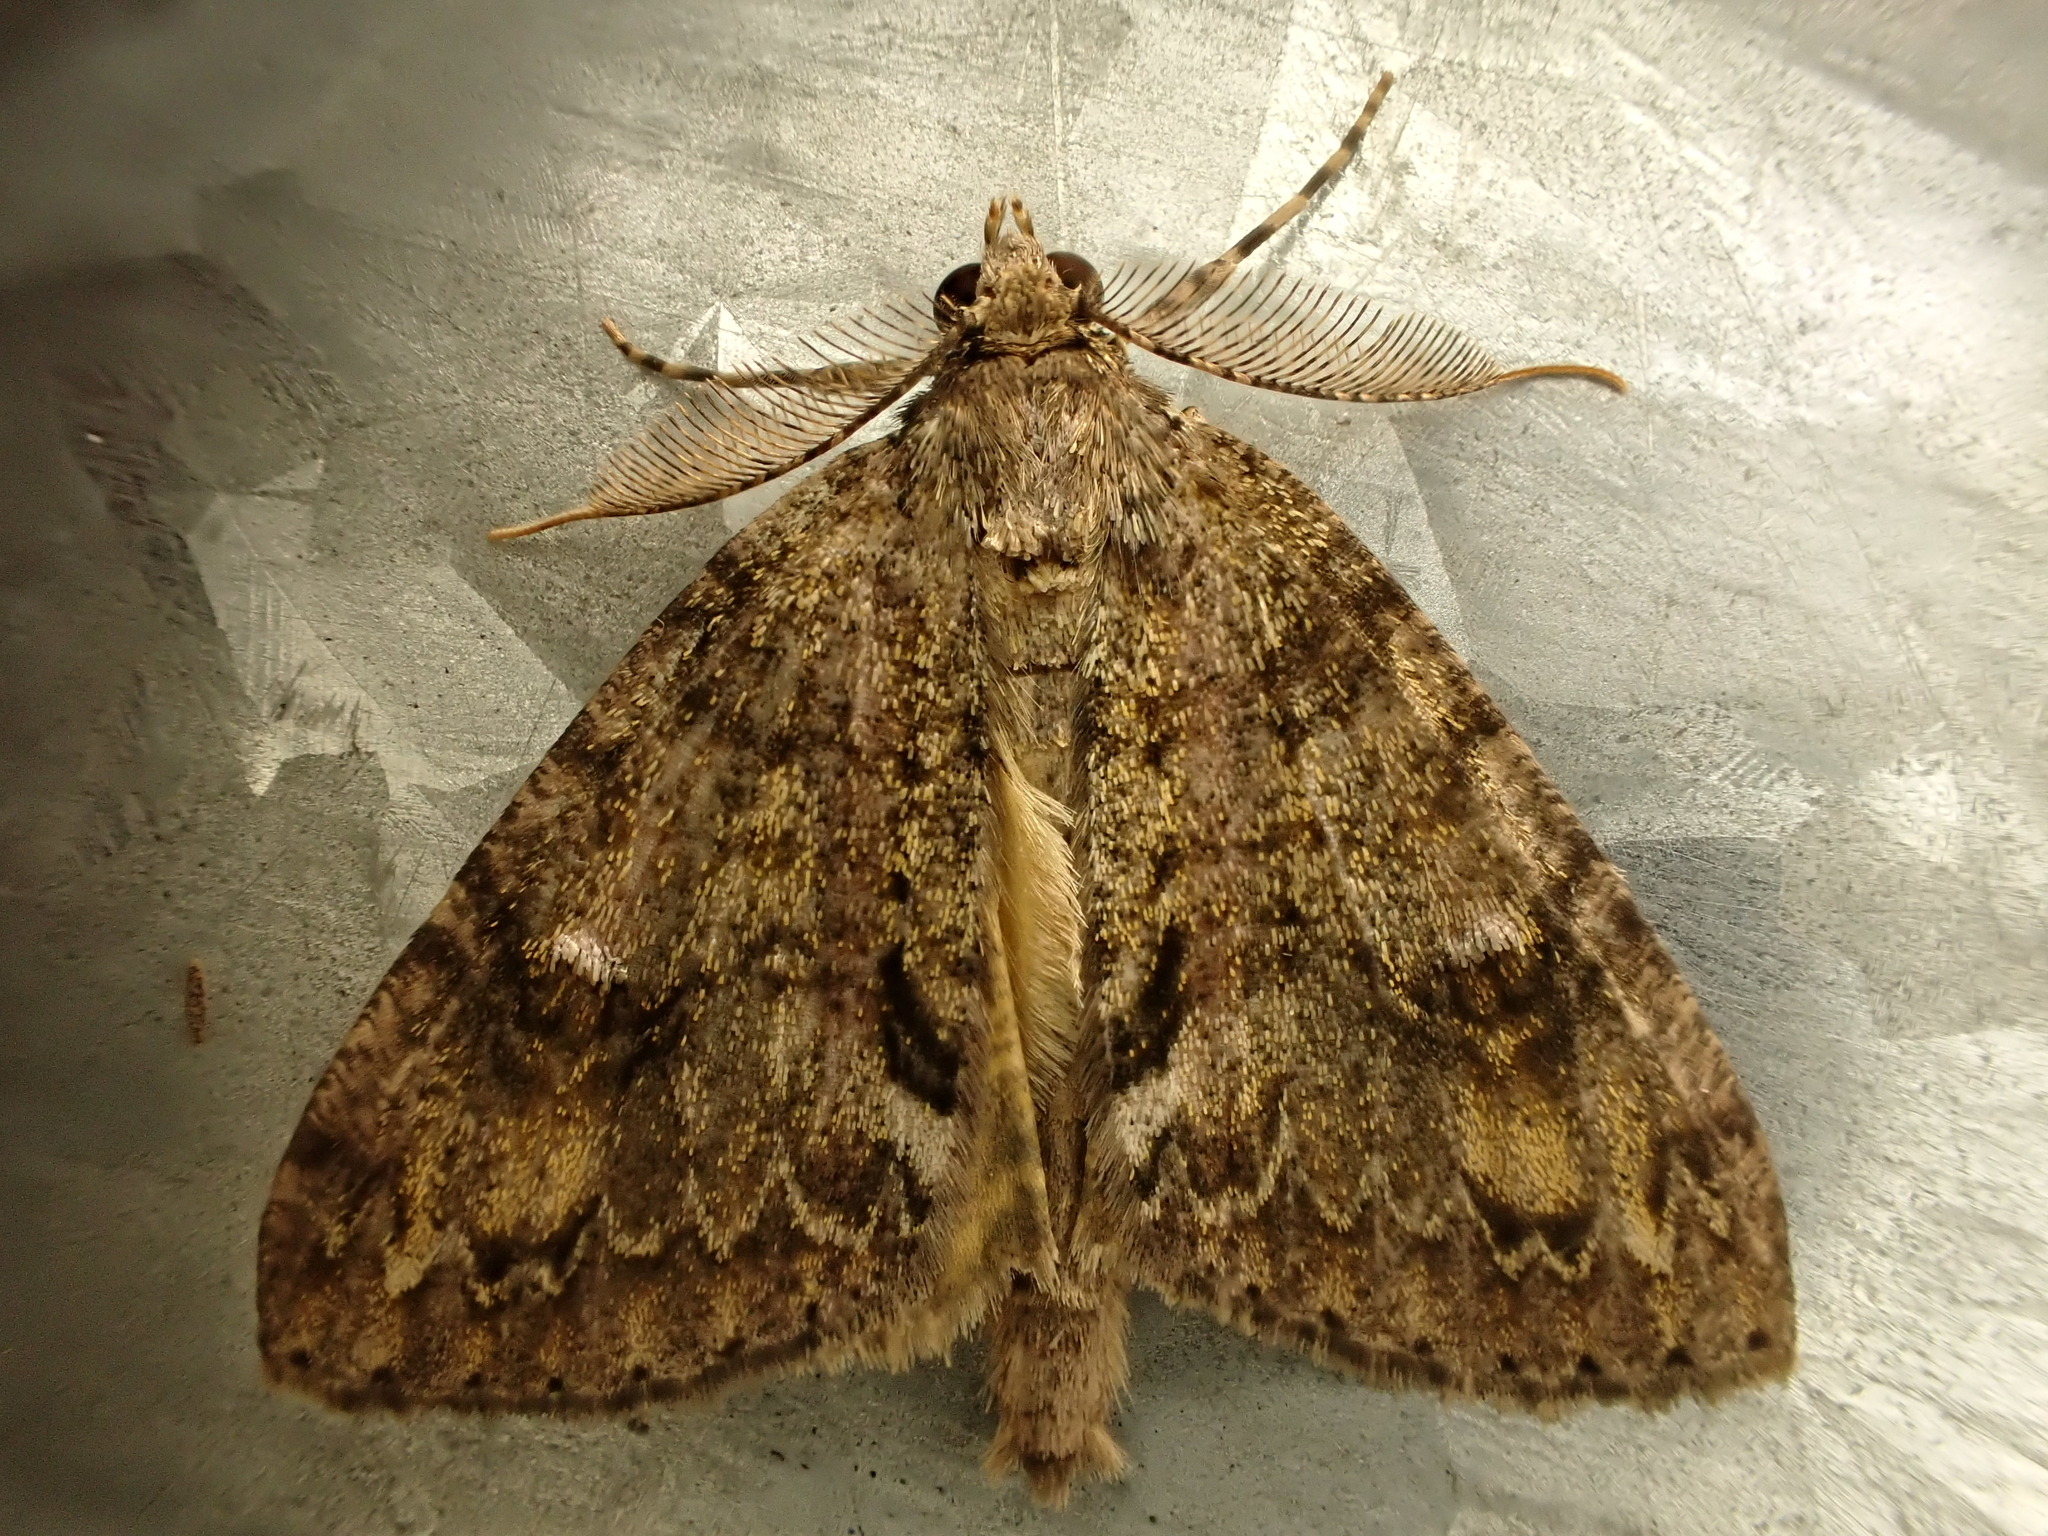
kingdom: Animalia
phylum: Arthropoda
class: Insecta
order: Lepidoptera
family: Geometridae
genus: Pseudocoremia
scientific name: Pseudocoremia suavis
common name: Common forest looper
